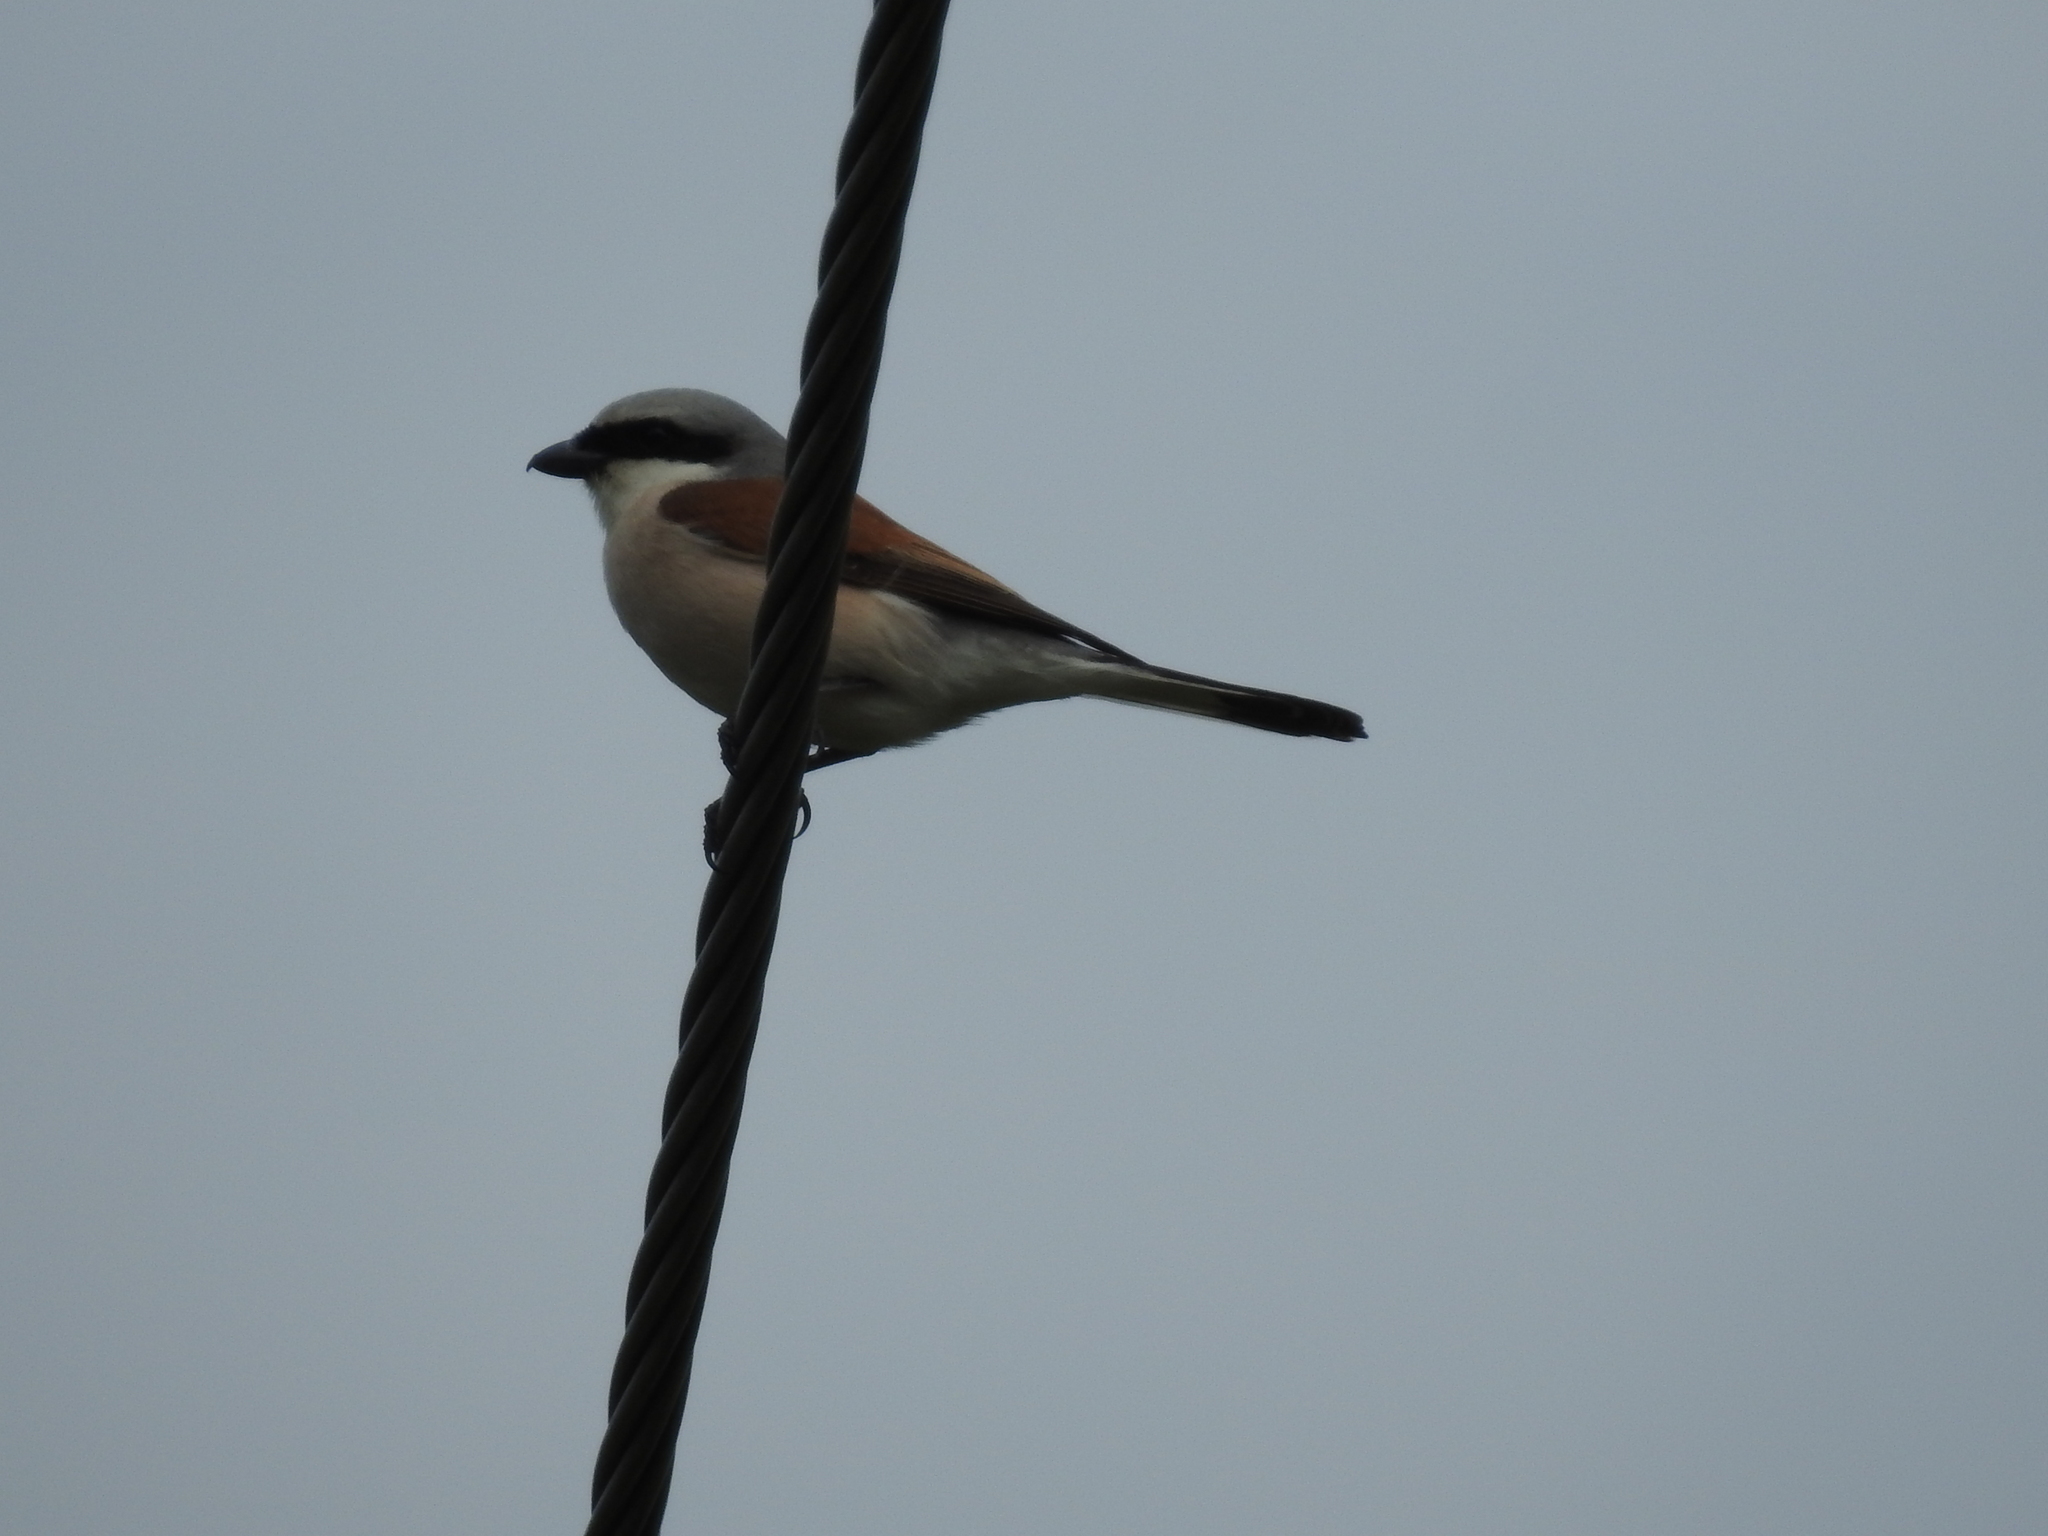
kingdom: Animalia
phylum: Chordata
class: Aves
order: Passeriformes
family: Laniidae
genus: Lanius
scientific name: Lanius collurio
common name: Red-backed shrike
